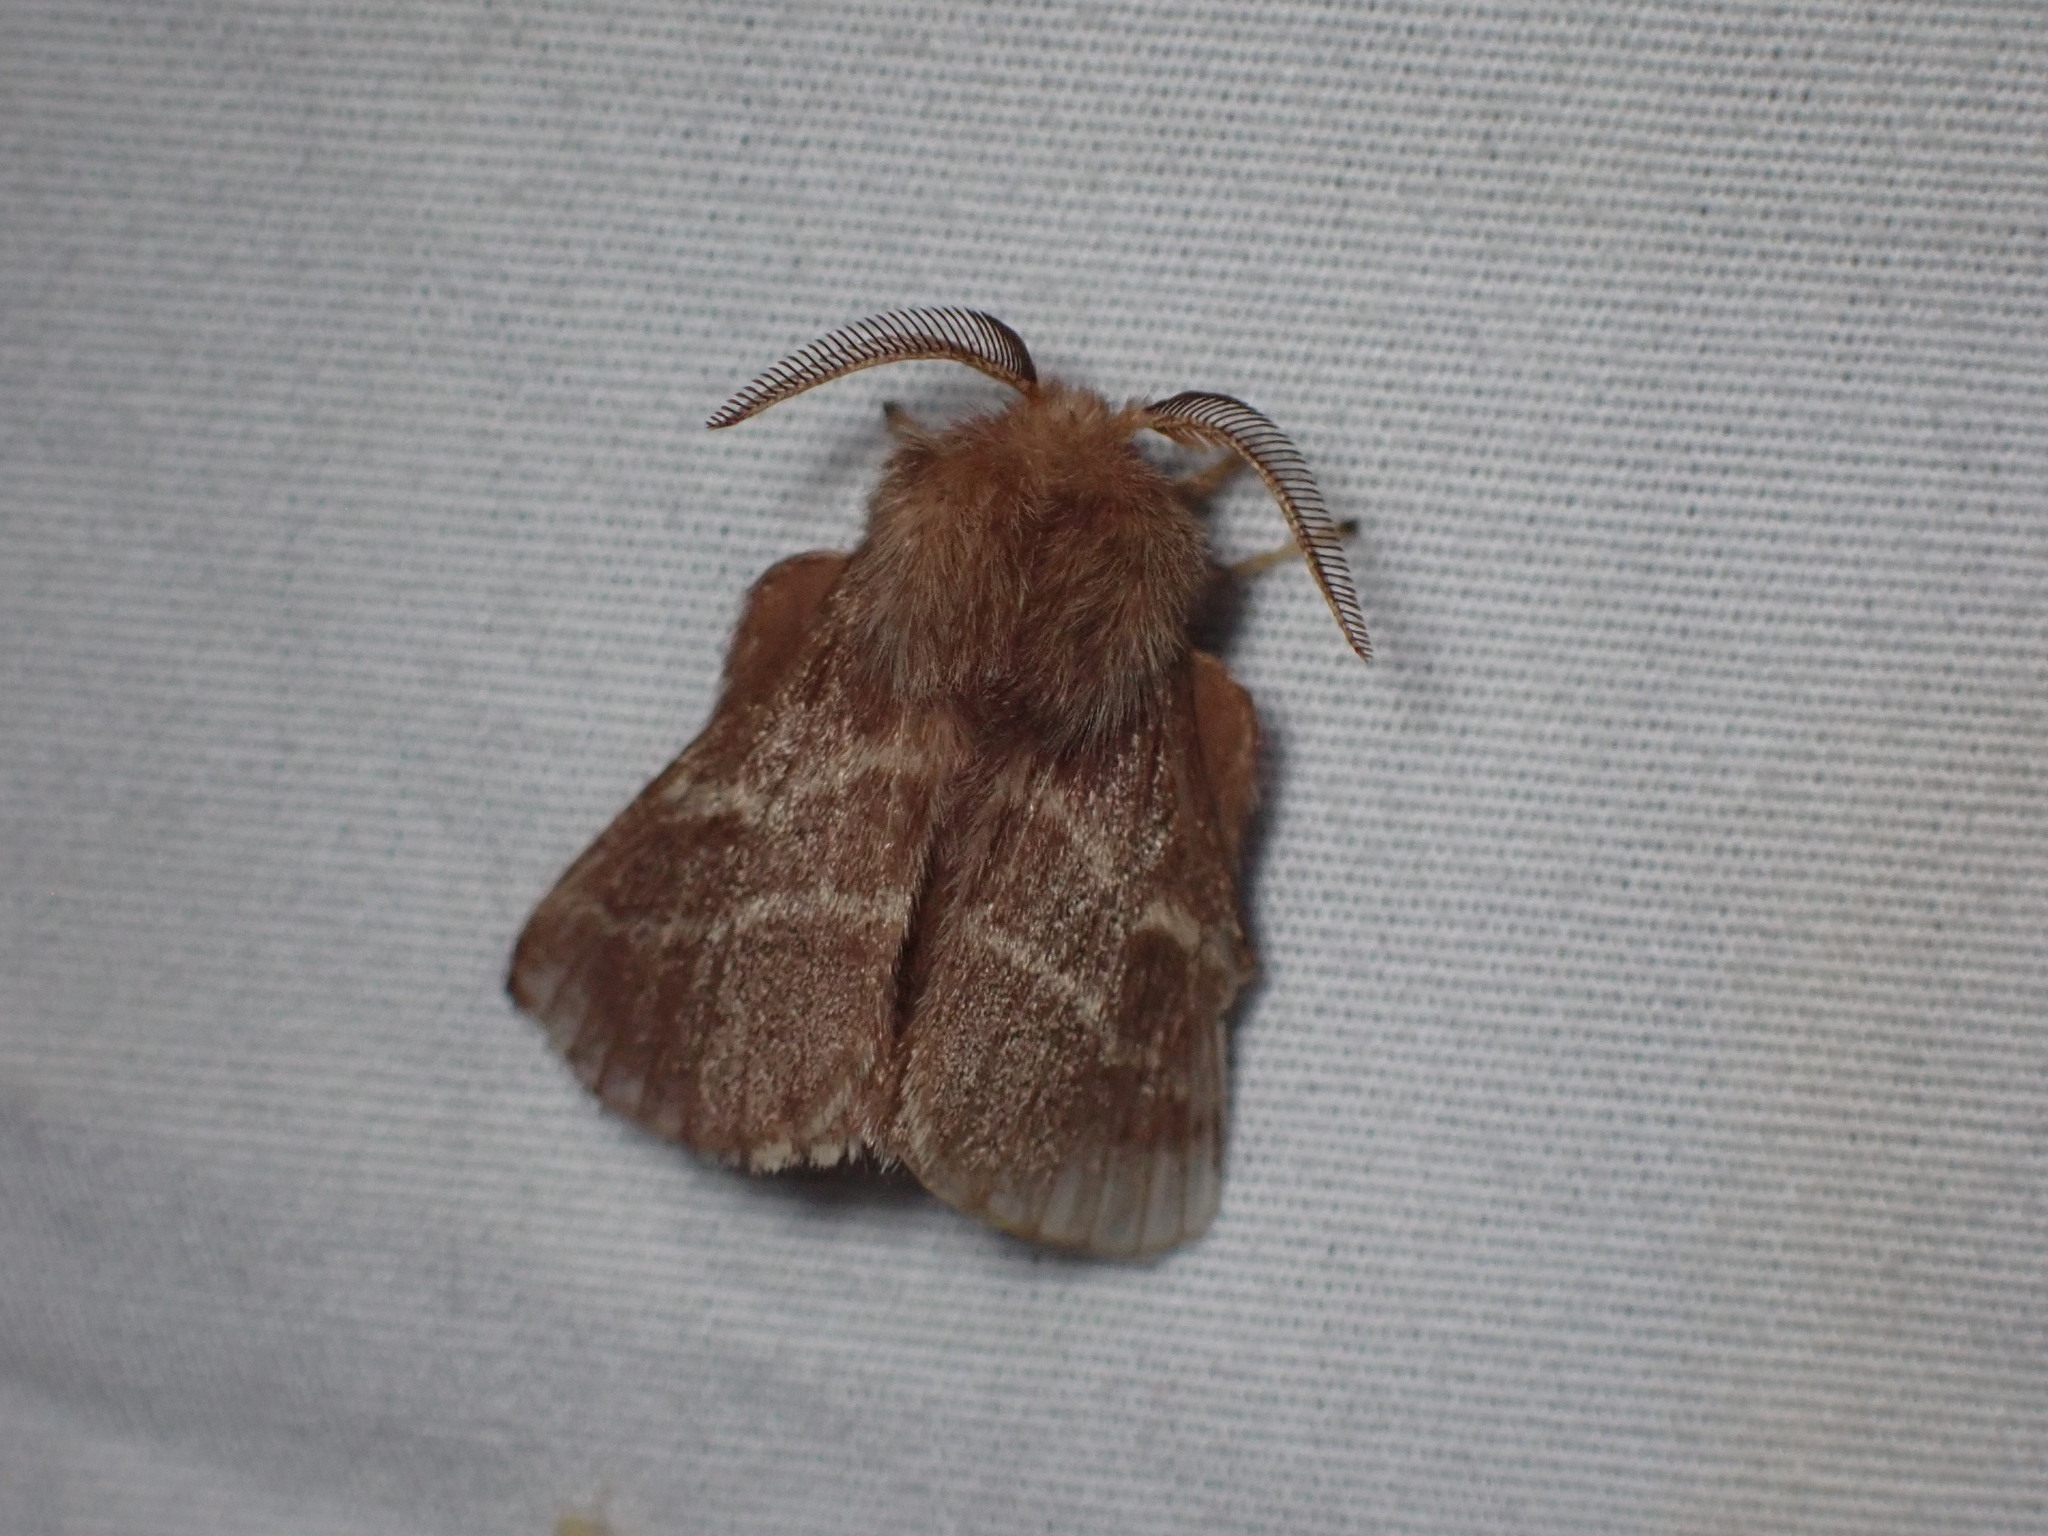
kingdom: Animalia
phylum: Arthropoda
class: Insecta
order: Lepidoptera
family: Lasiocampidae
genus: Malacosoma
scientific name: Malacosoma americana
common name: Eastern tent caterpillar moth
